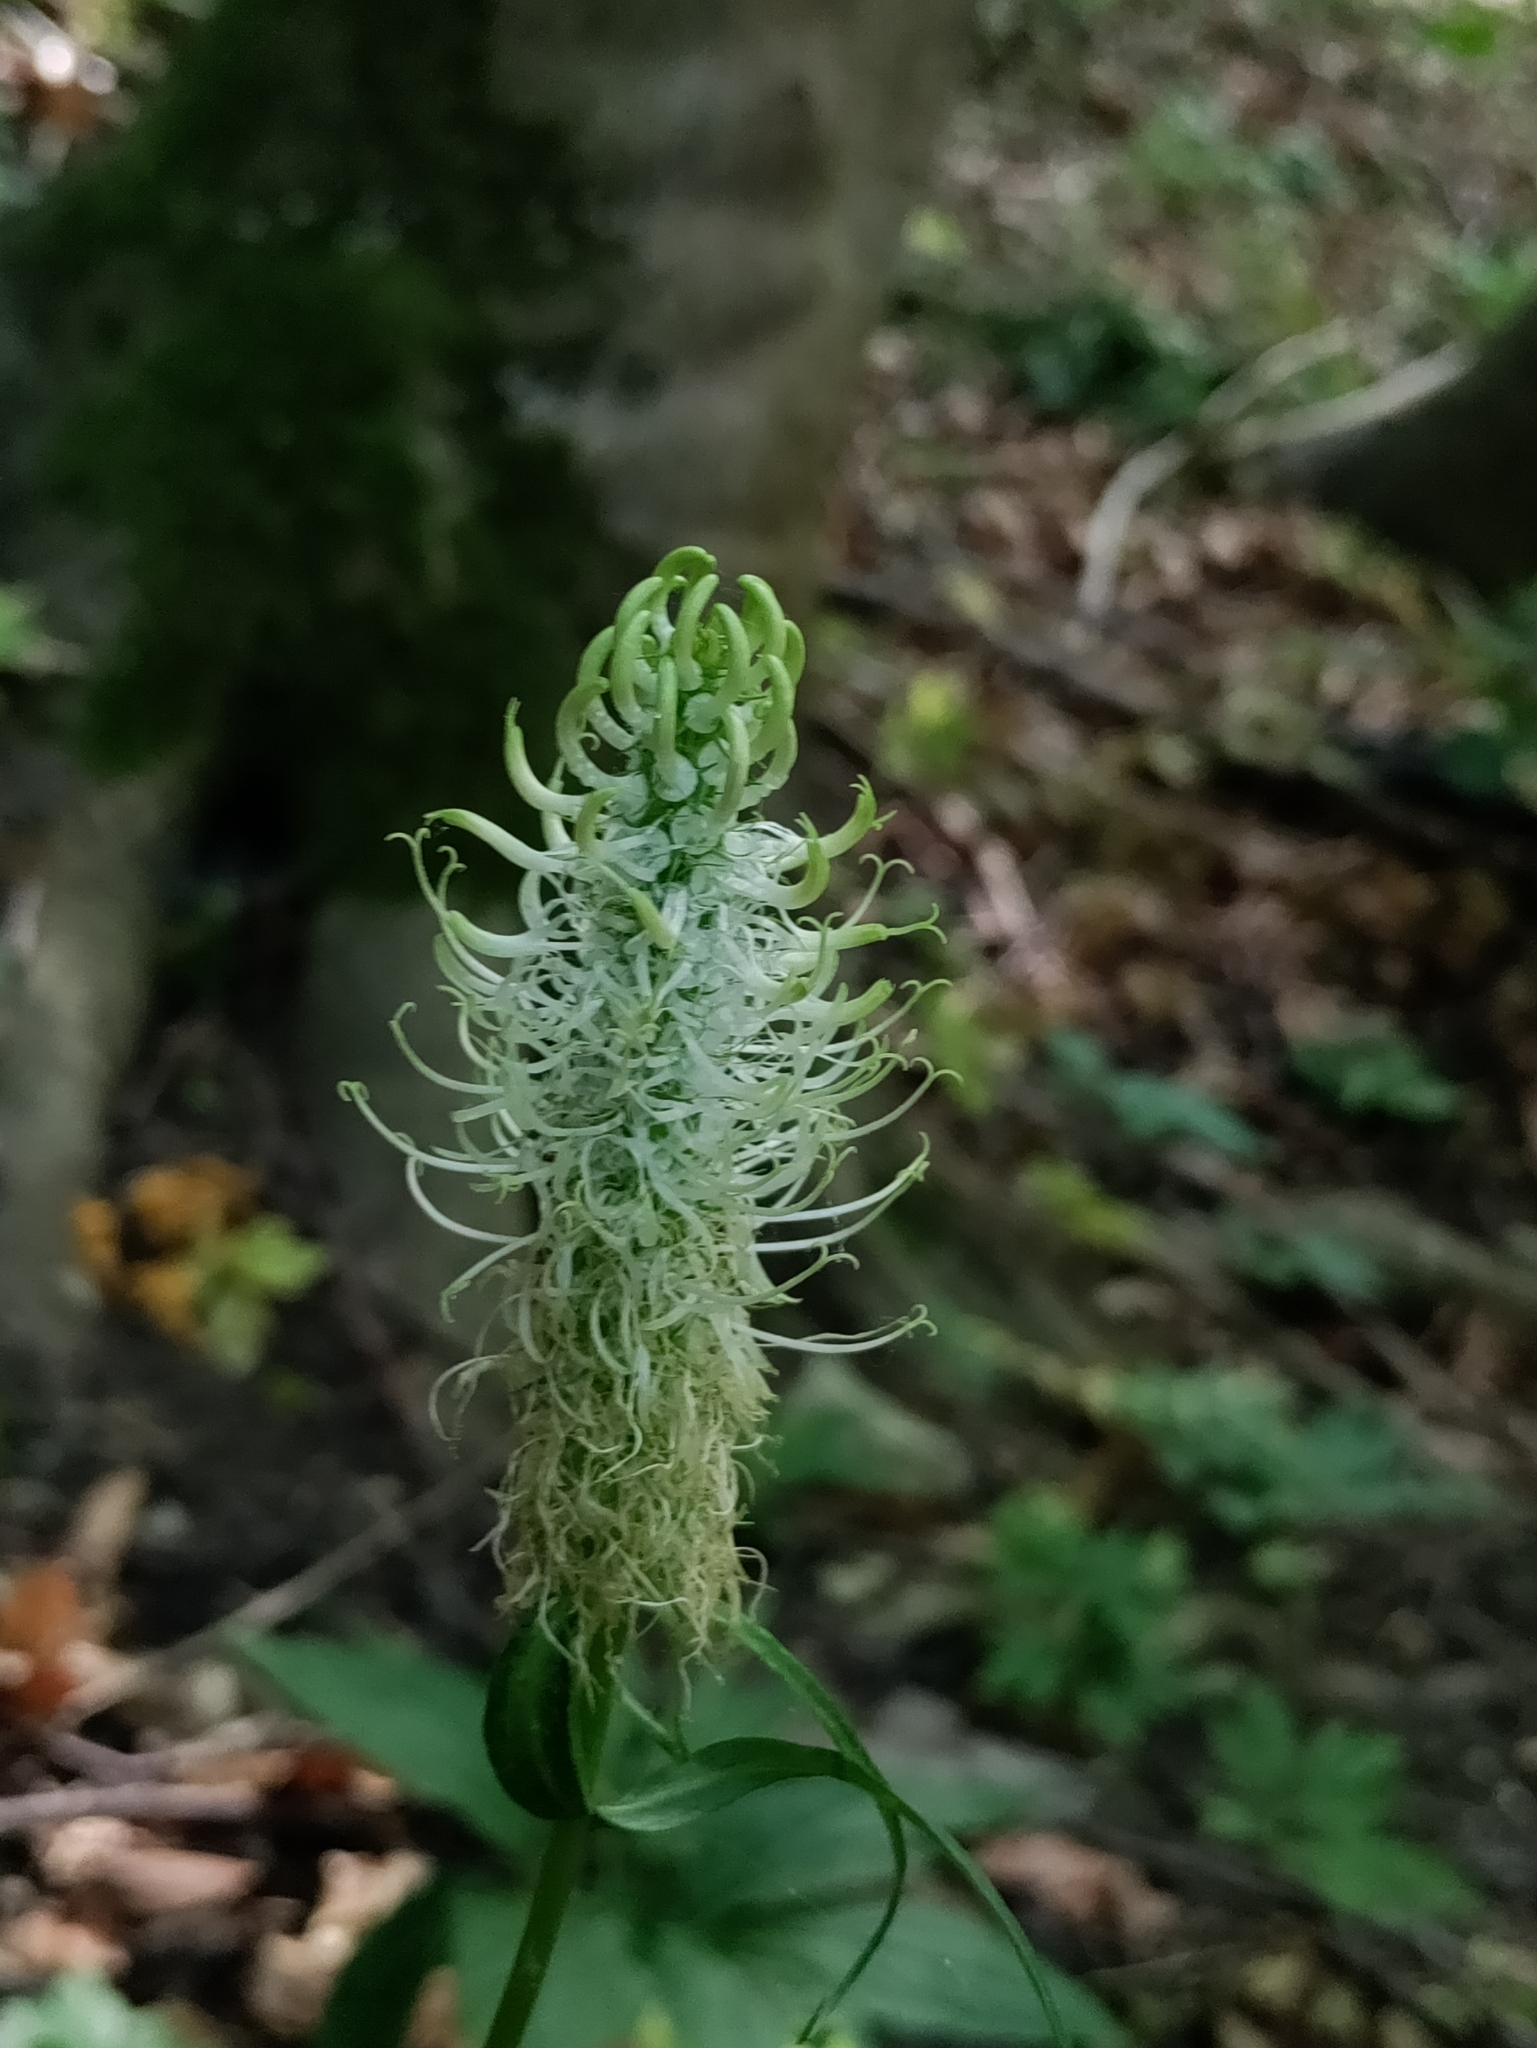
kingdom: Plantae
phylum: Tracheophyta
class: Magnoliopsida
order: Asterales
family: Campanulaceae
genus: Phyteuma
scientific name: Phyteuma spicatum
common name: Spiked rampion
